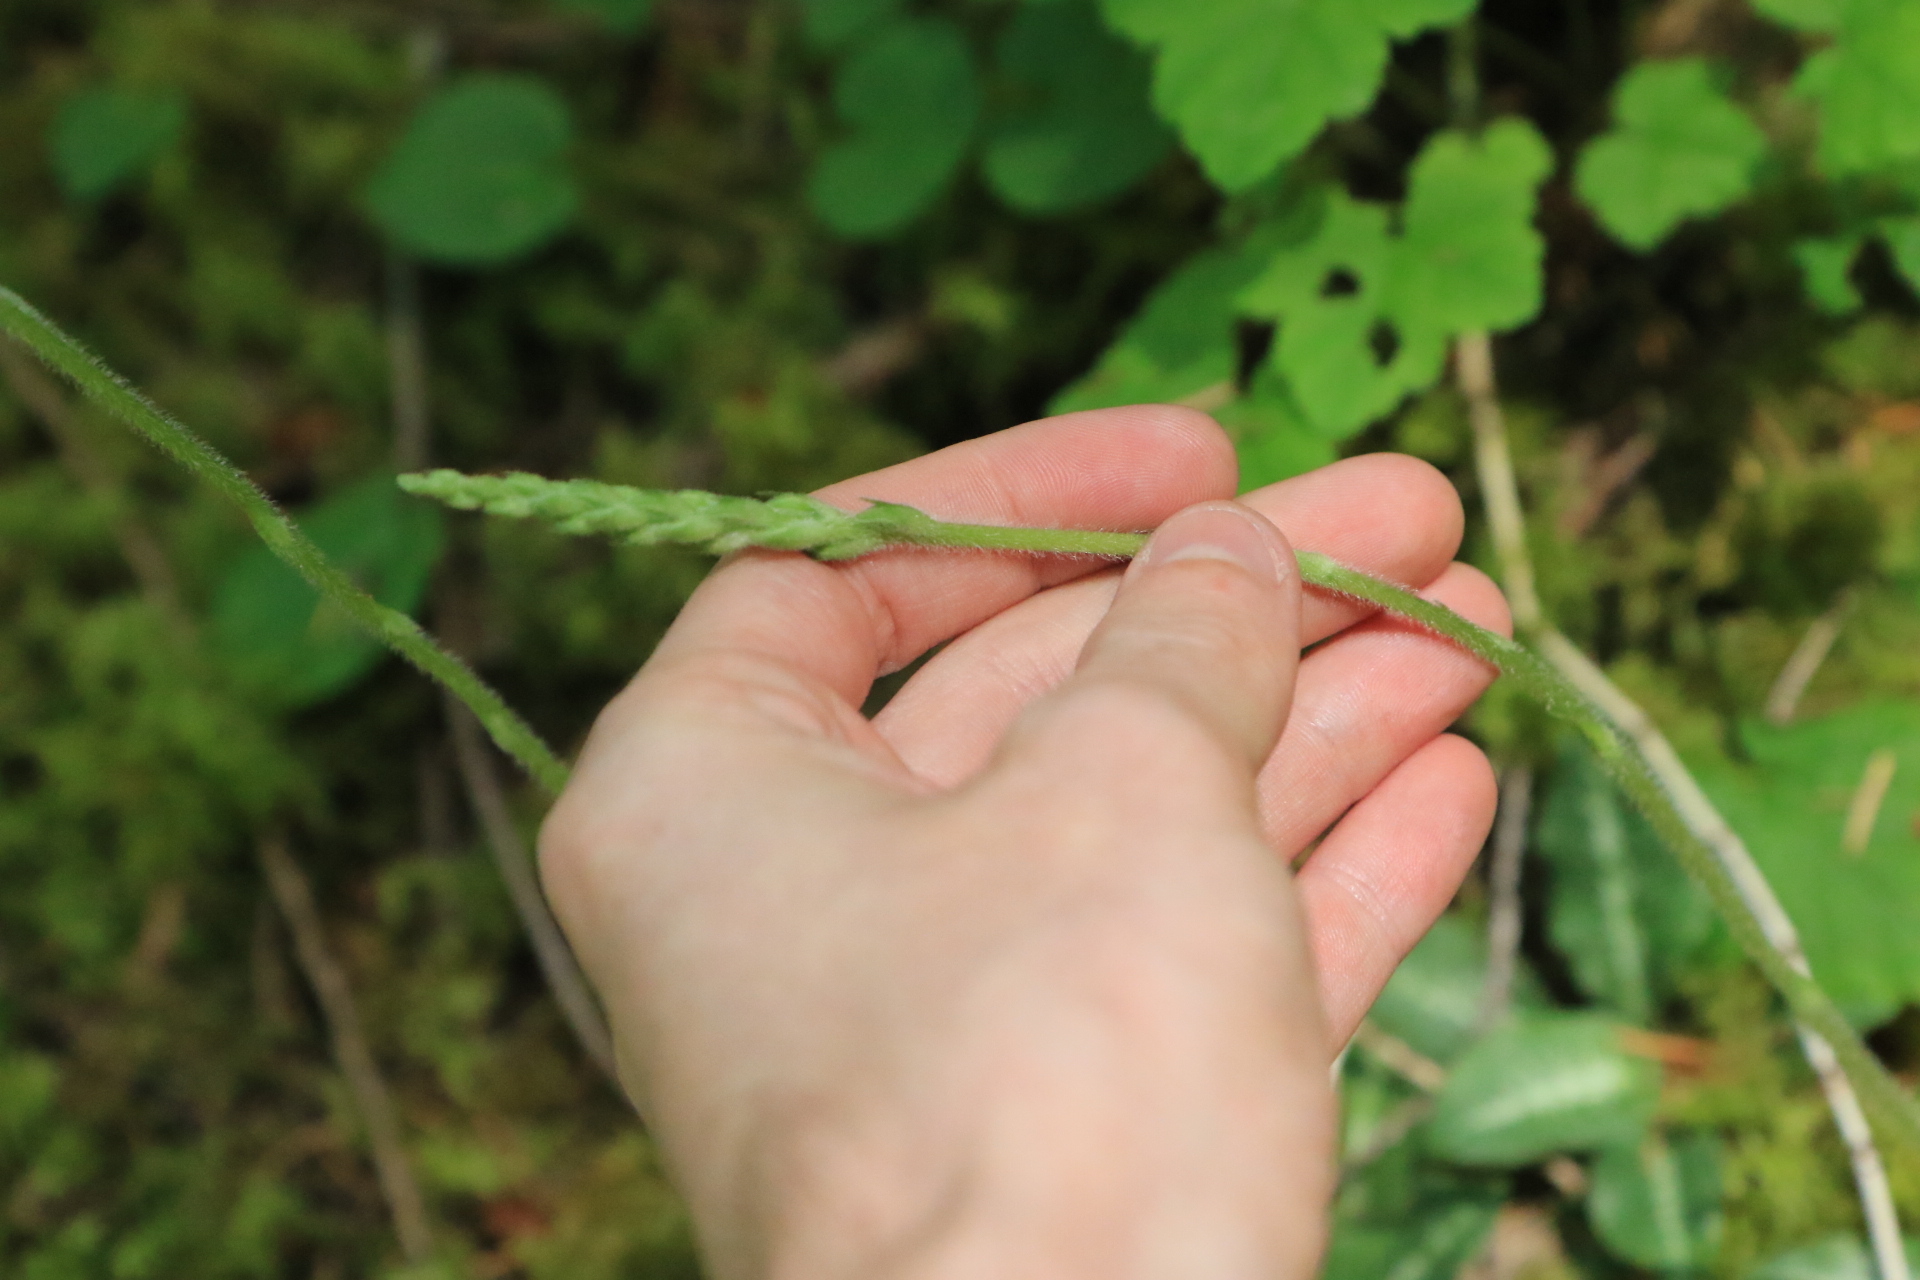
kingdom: Plantae
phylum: Tracheophyta
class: Liliopsida
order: Asparagales
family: Orchidaceae
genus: Goodyera
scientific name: Goodyera oblongifolia
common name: Giant rattlesnake-plantain
